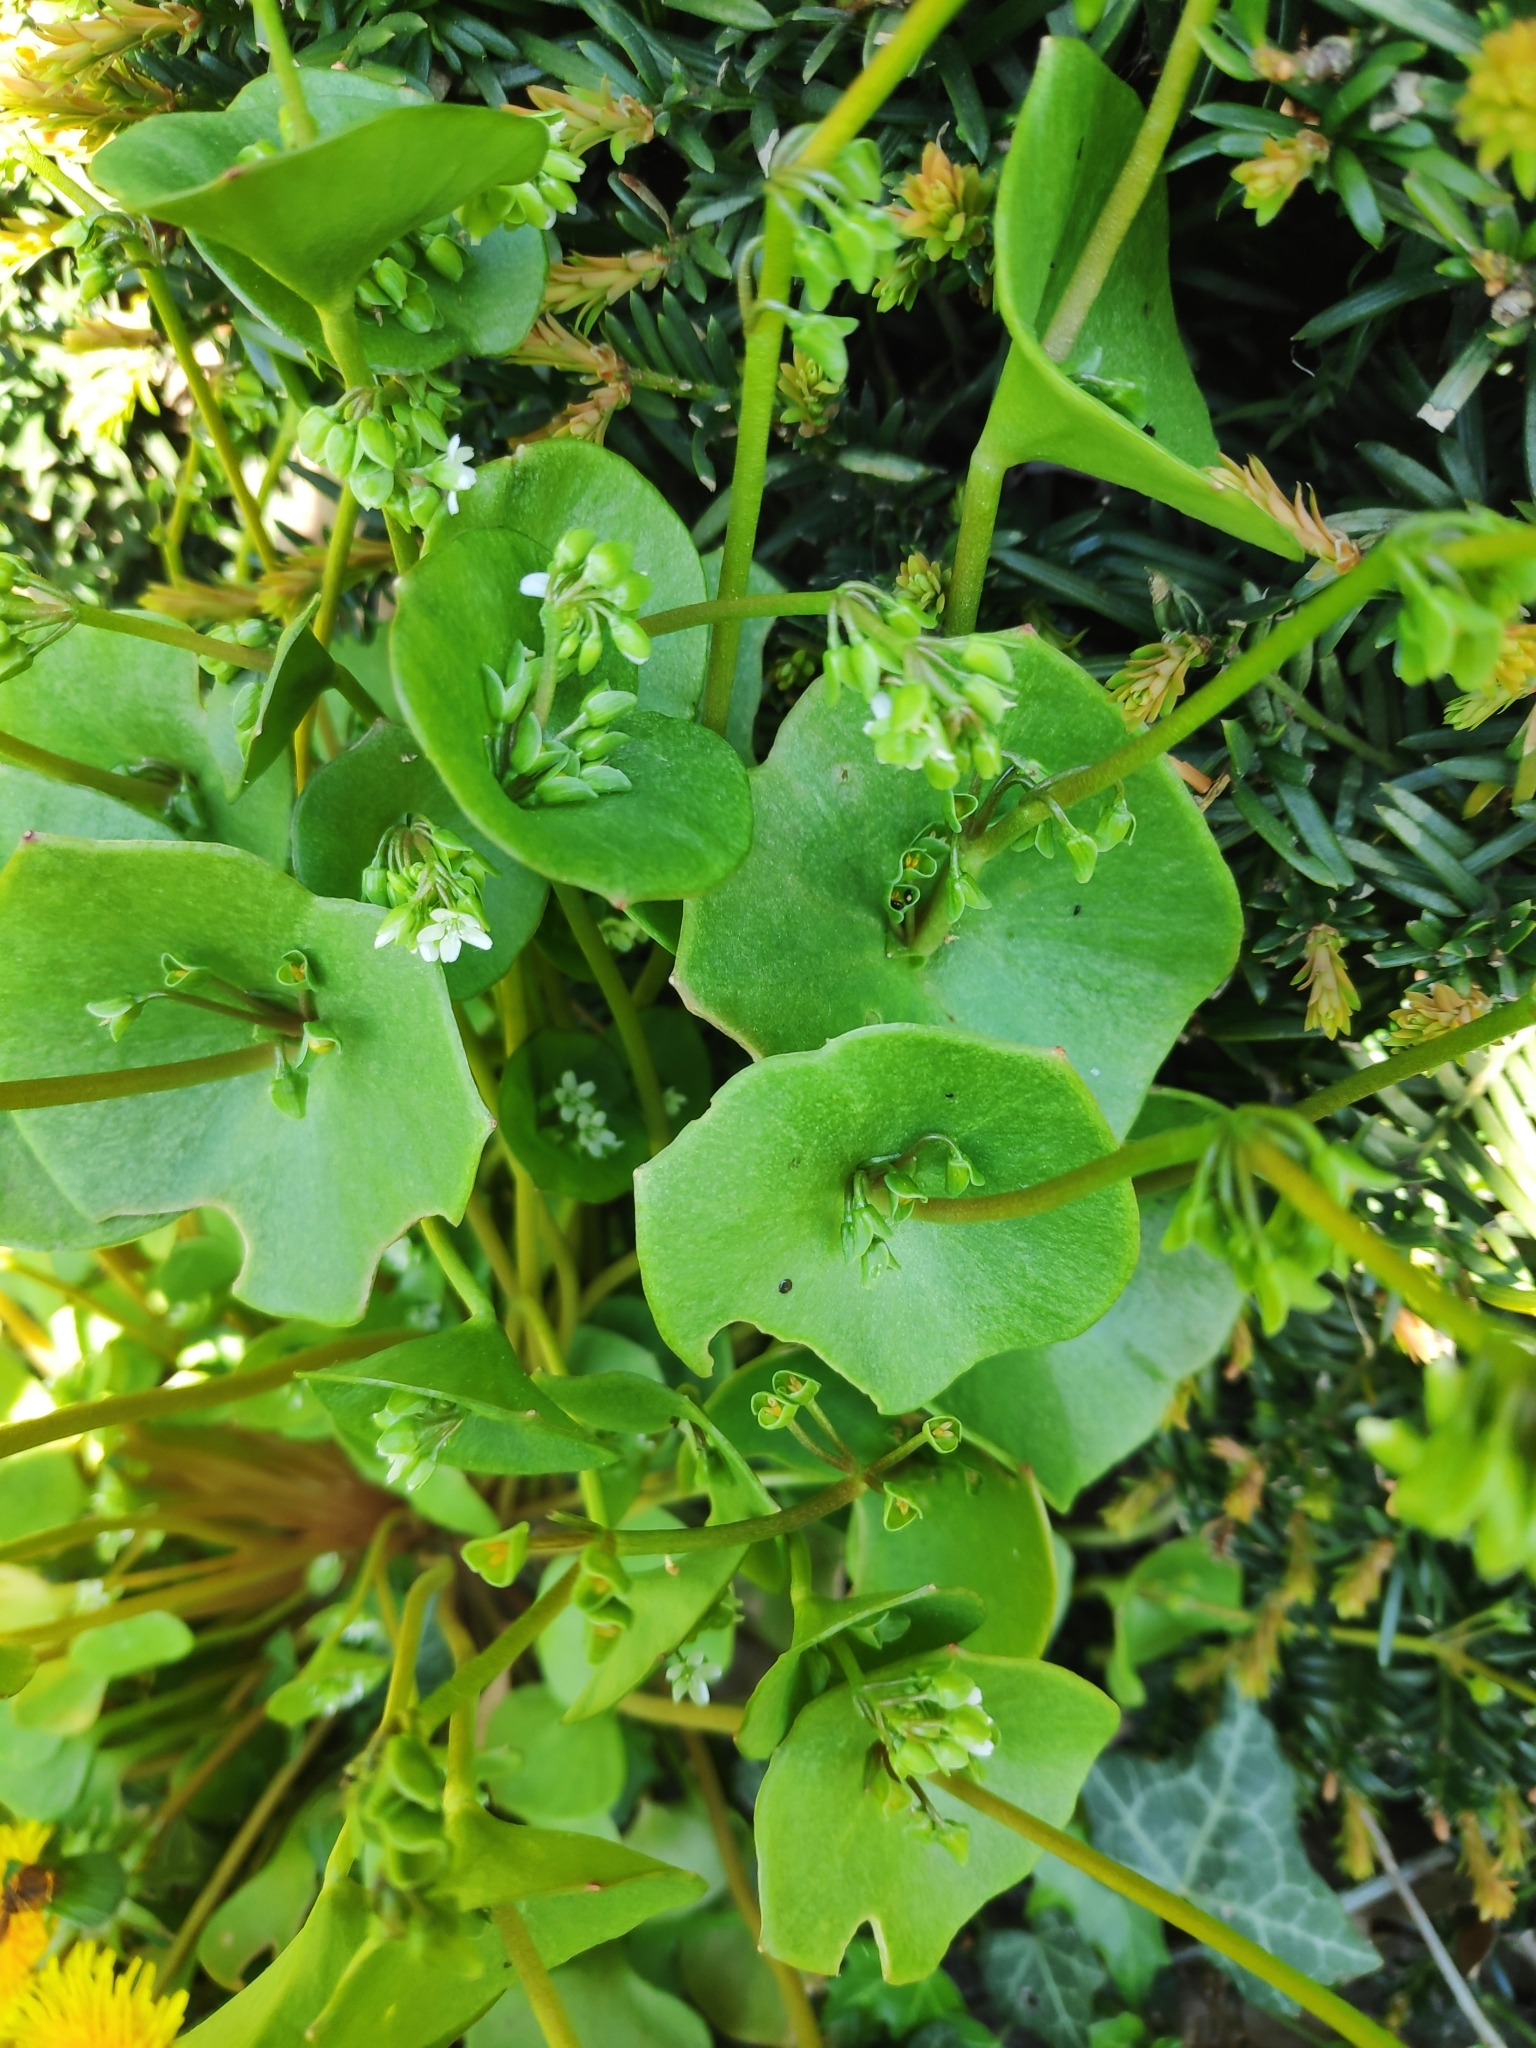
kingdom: Plantae
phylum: Tracheophyta
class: Magnoliopsida
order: Caryophyllales
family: Montiaceae
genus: Claytonia
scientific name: Claytonia perfoliata
